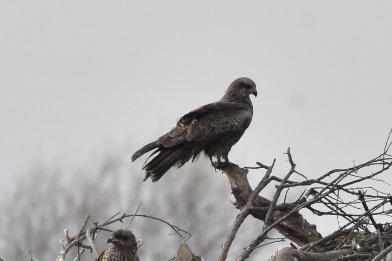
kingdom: Animalia
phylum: Chordata
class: Aves
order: Accipitriformes
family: Accipitridae
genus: Milvus
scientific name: Milvus migrans
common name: Black kite
